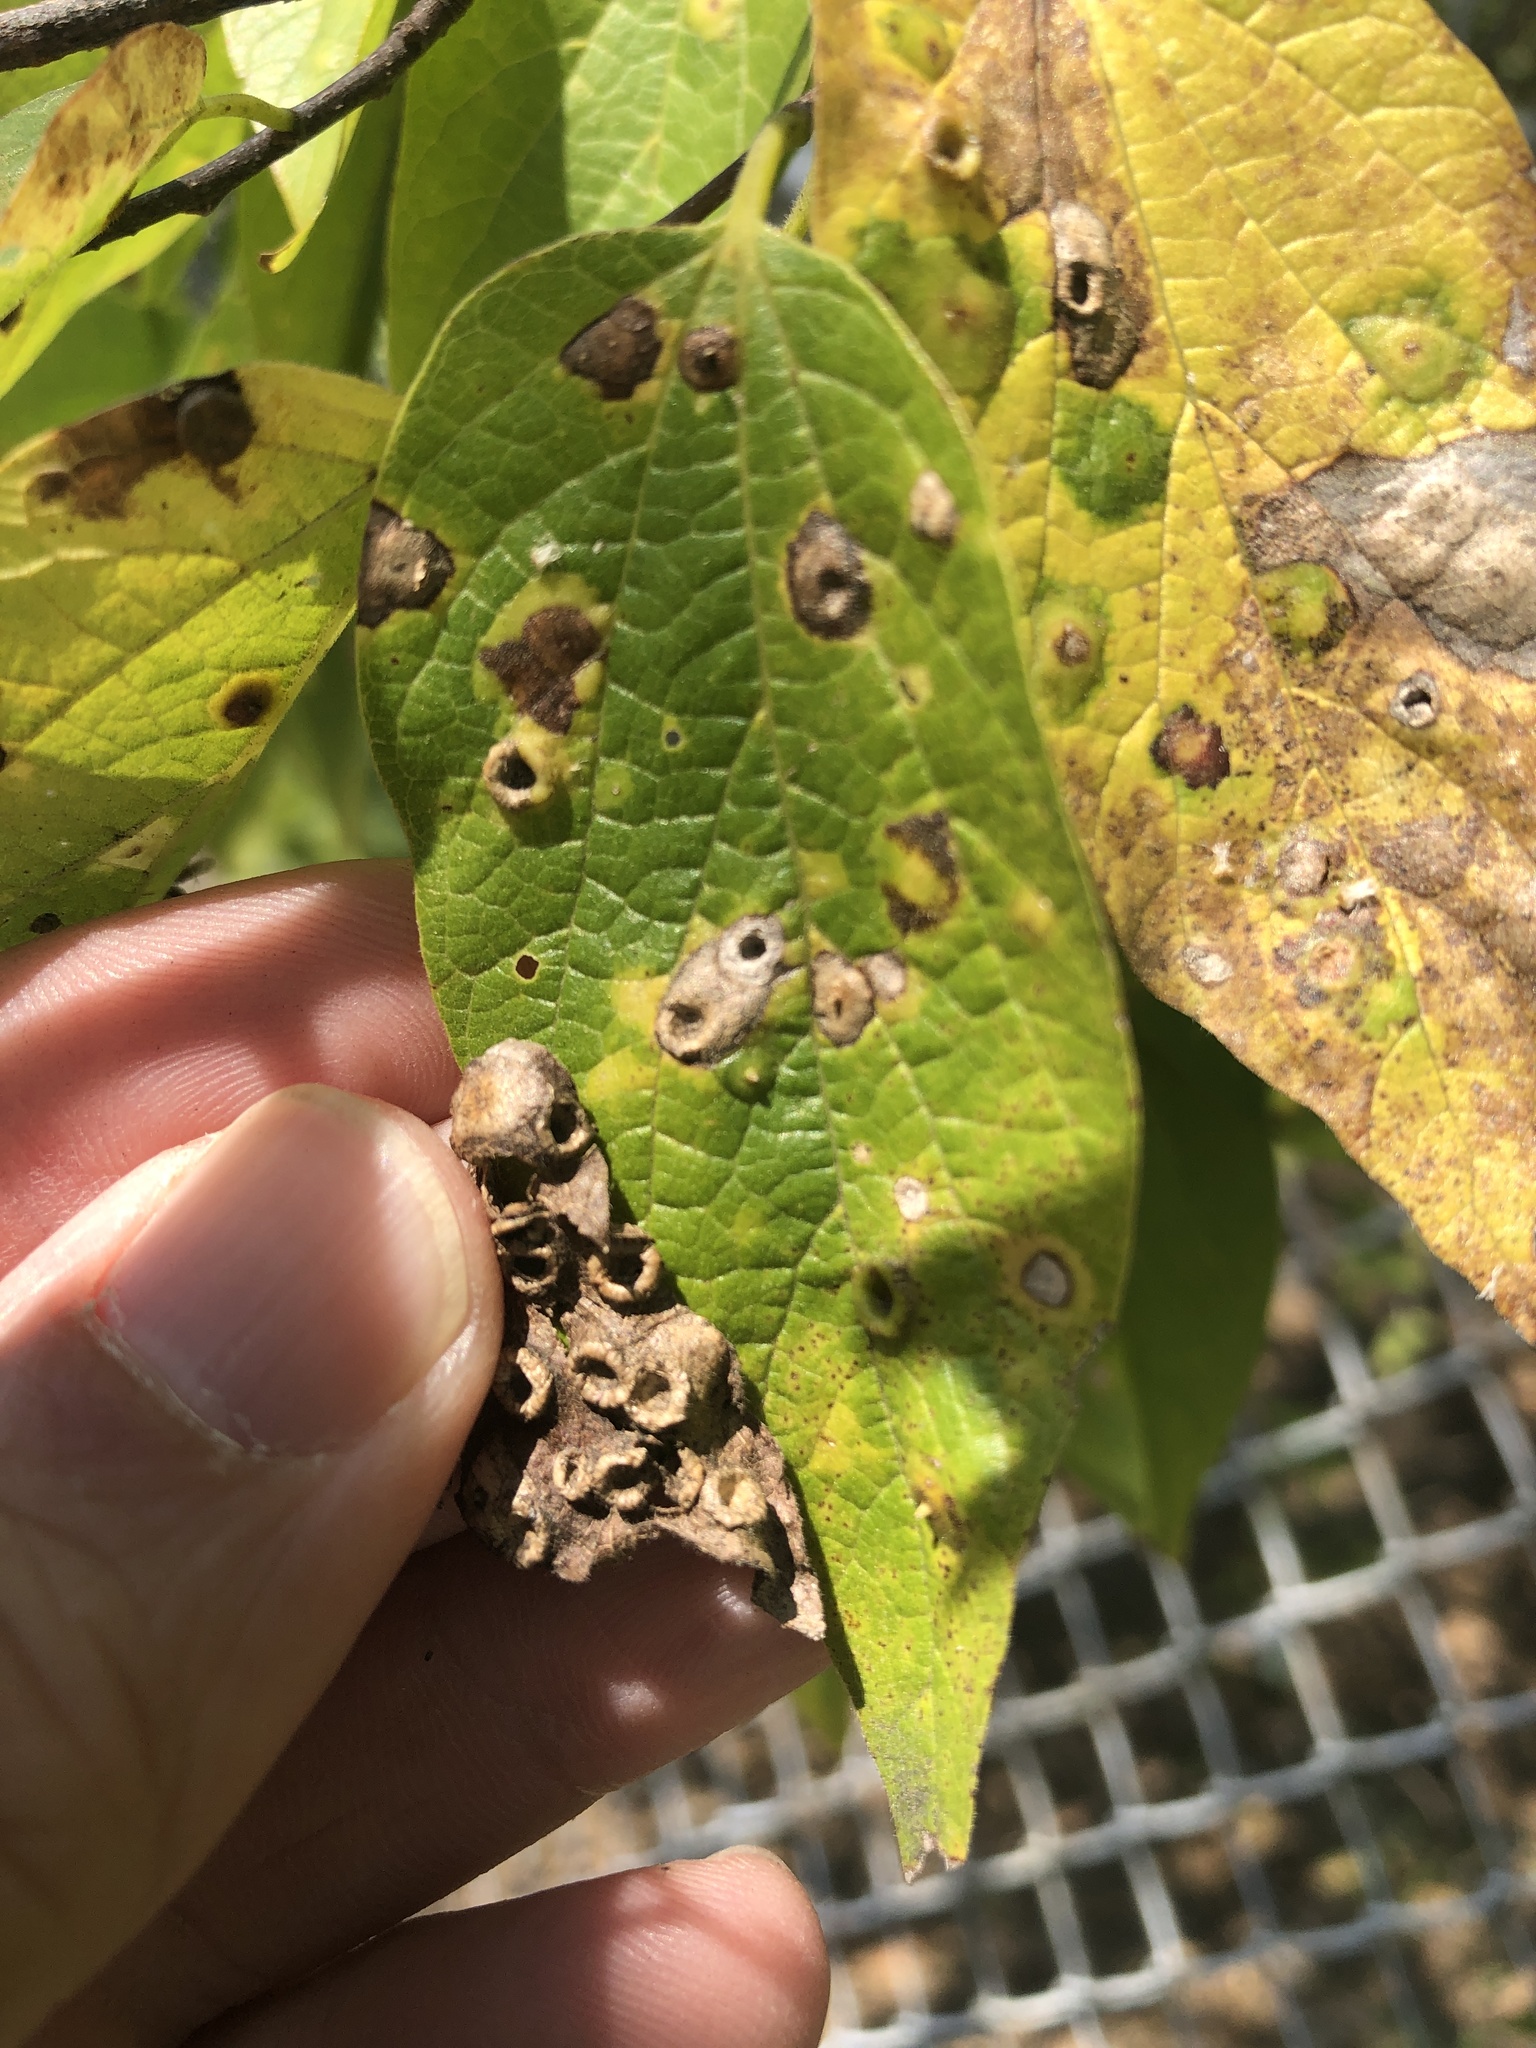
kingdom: Animalia
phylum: Arthropoda
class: Insecta
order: Hemiptera
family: Aphalaridae
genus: Pachypsylla
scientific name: Pachypsylla celtidismamma
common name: Hackberry nipplegall psyllid
